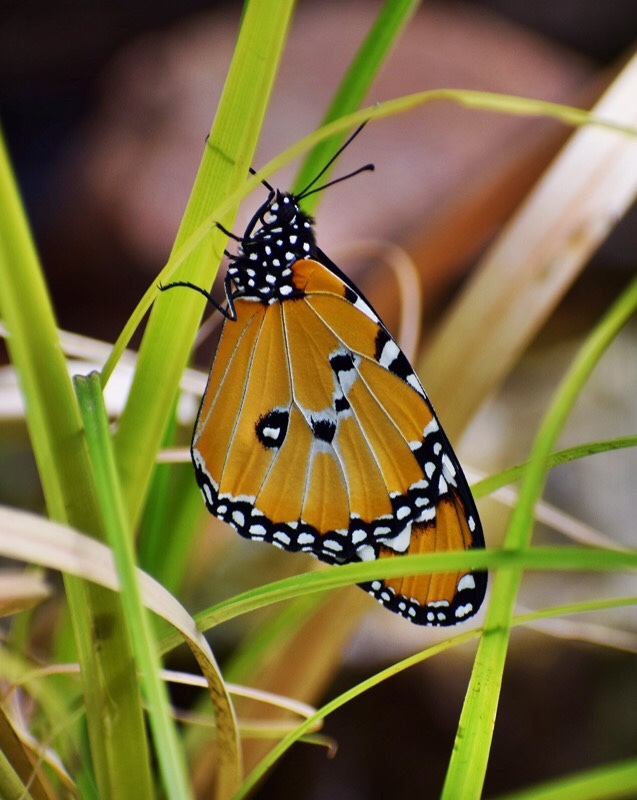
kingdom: Animalia
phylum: Arthropoda
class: Insecta
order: Lepidoptera
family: Nymphalidae
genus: Danaus
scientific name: Danaus chrysippus
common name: Plain tiger
